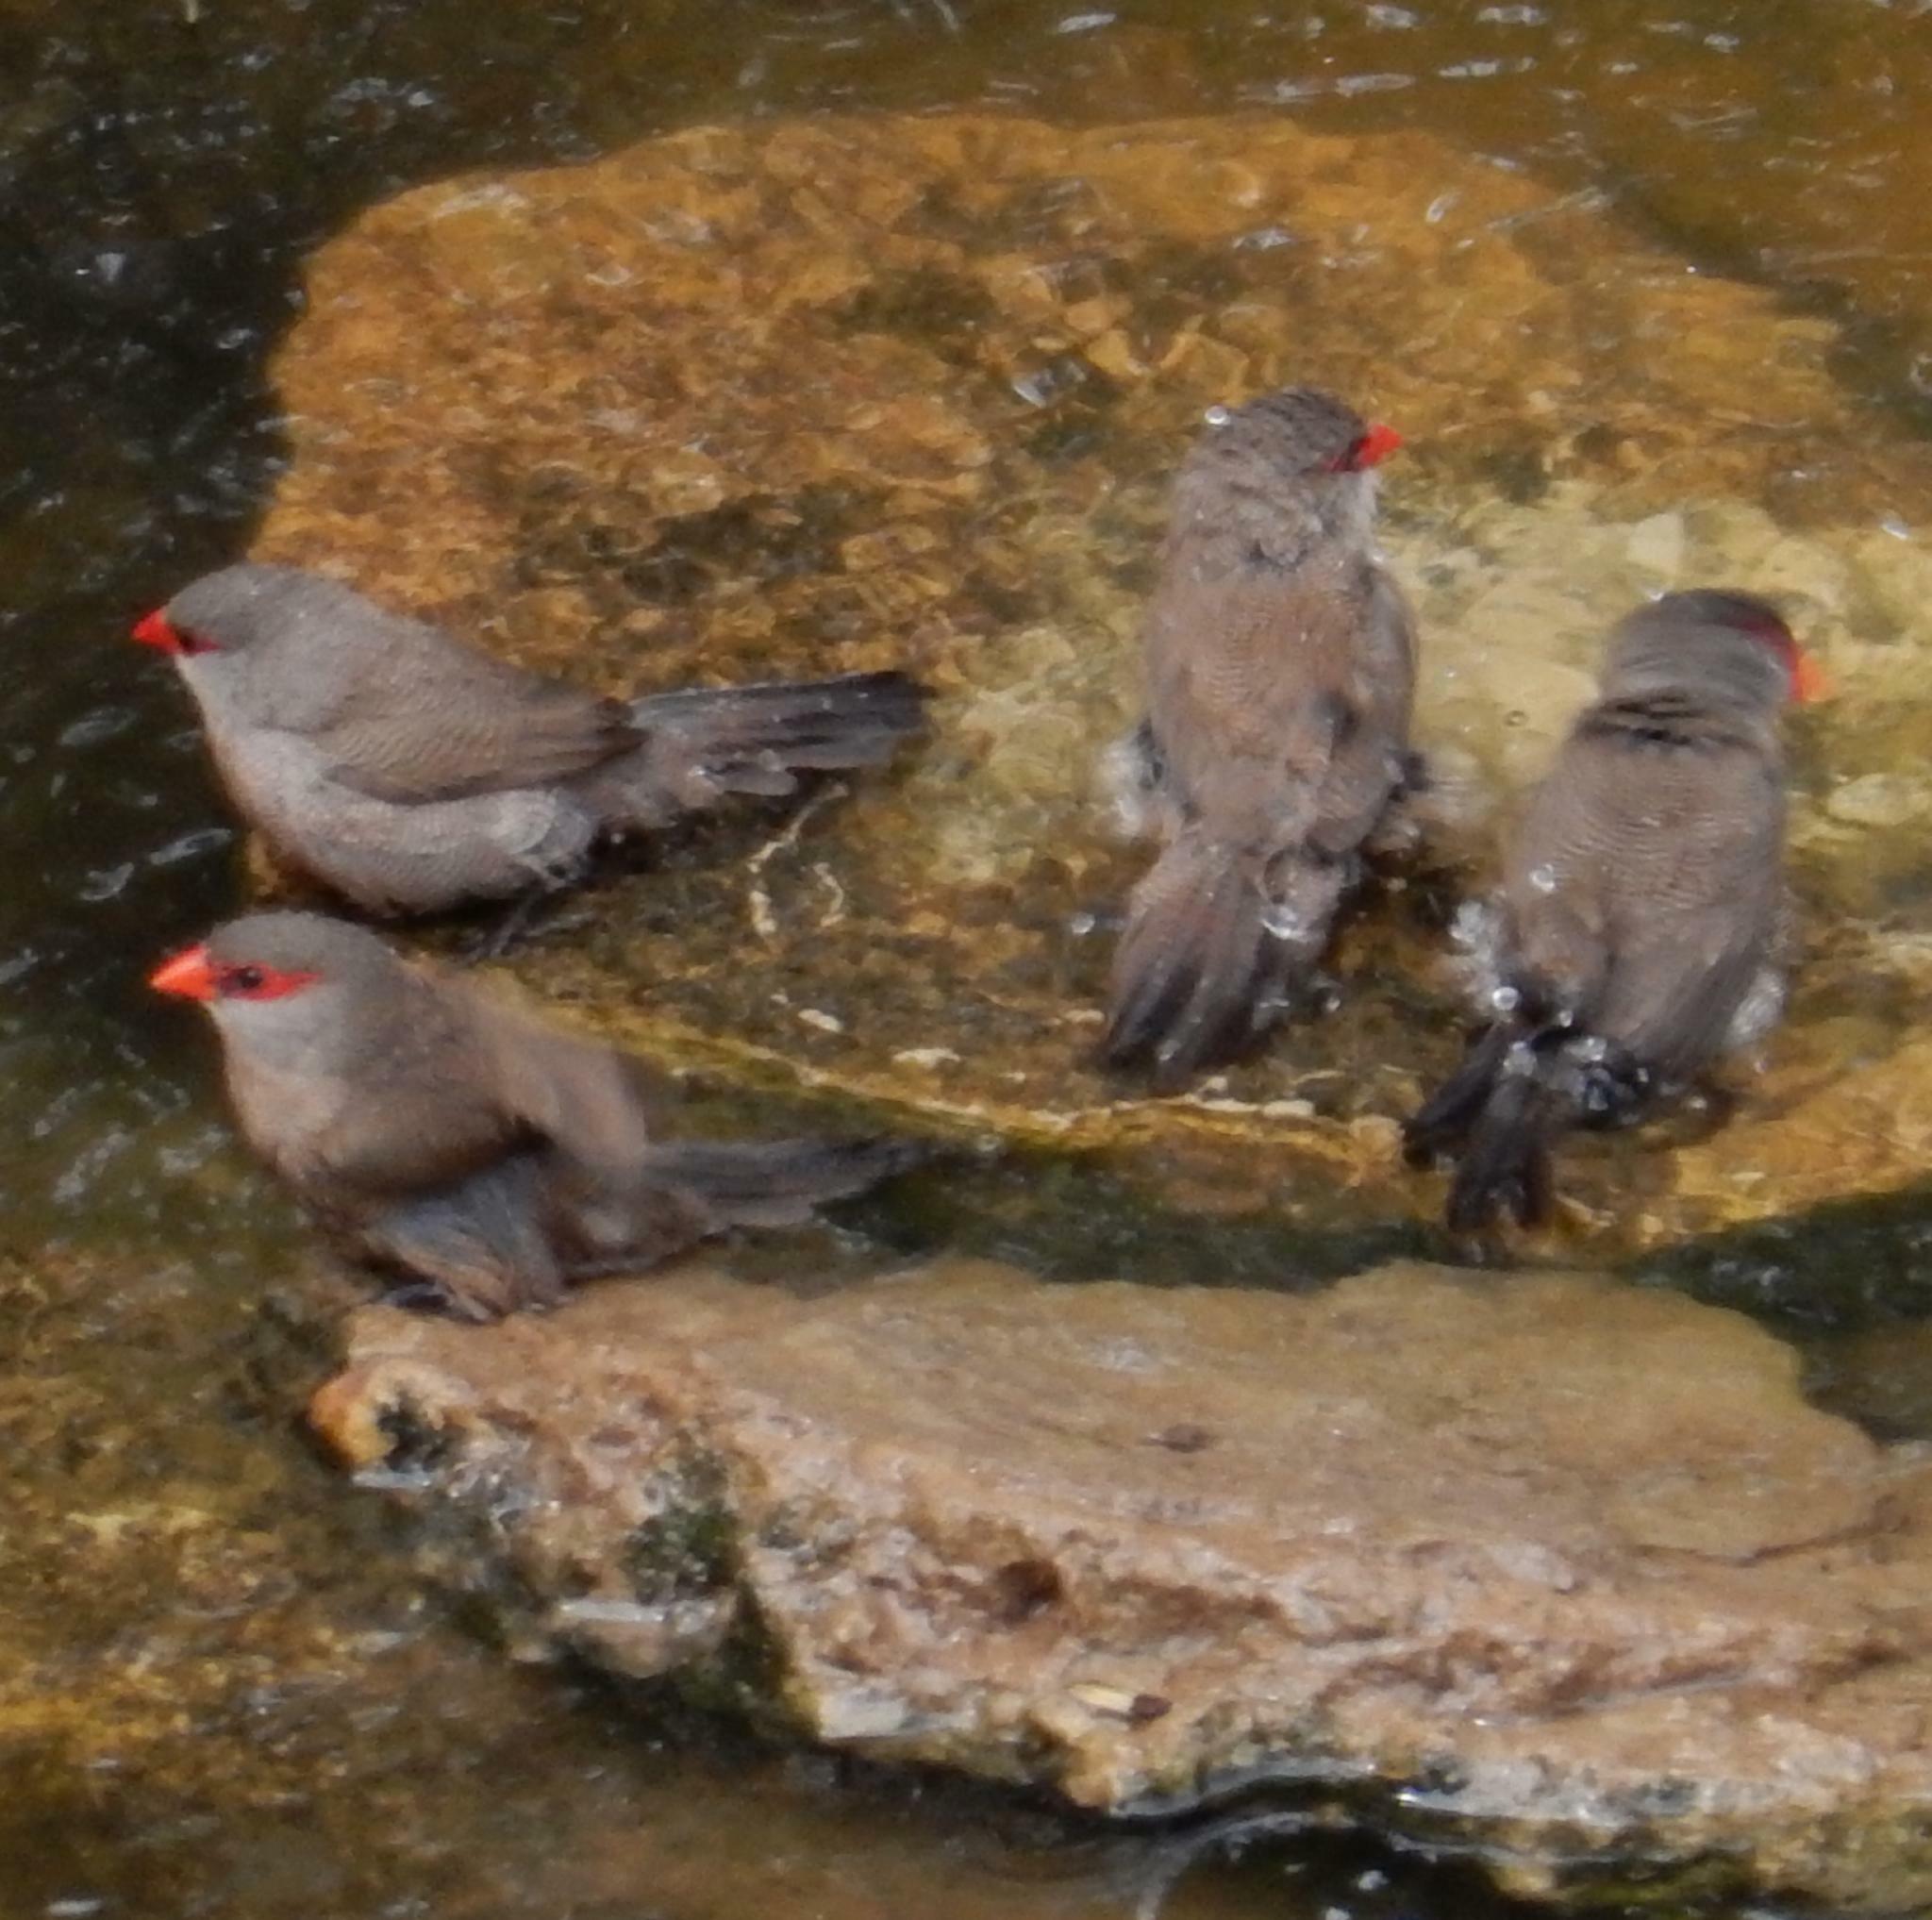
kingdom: Animalia
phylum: Chordata
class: Aves
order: Passeriformes
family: Estrildidae
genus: Estrilda
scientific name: Estrilda astrild
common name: Common waxbill
